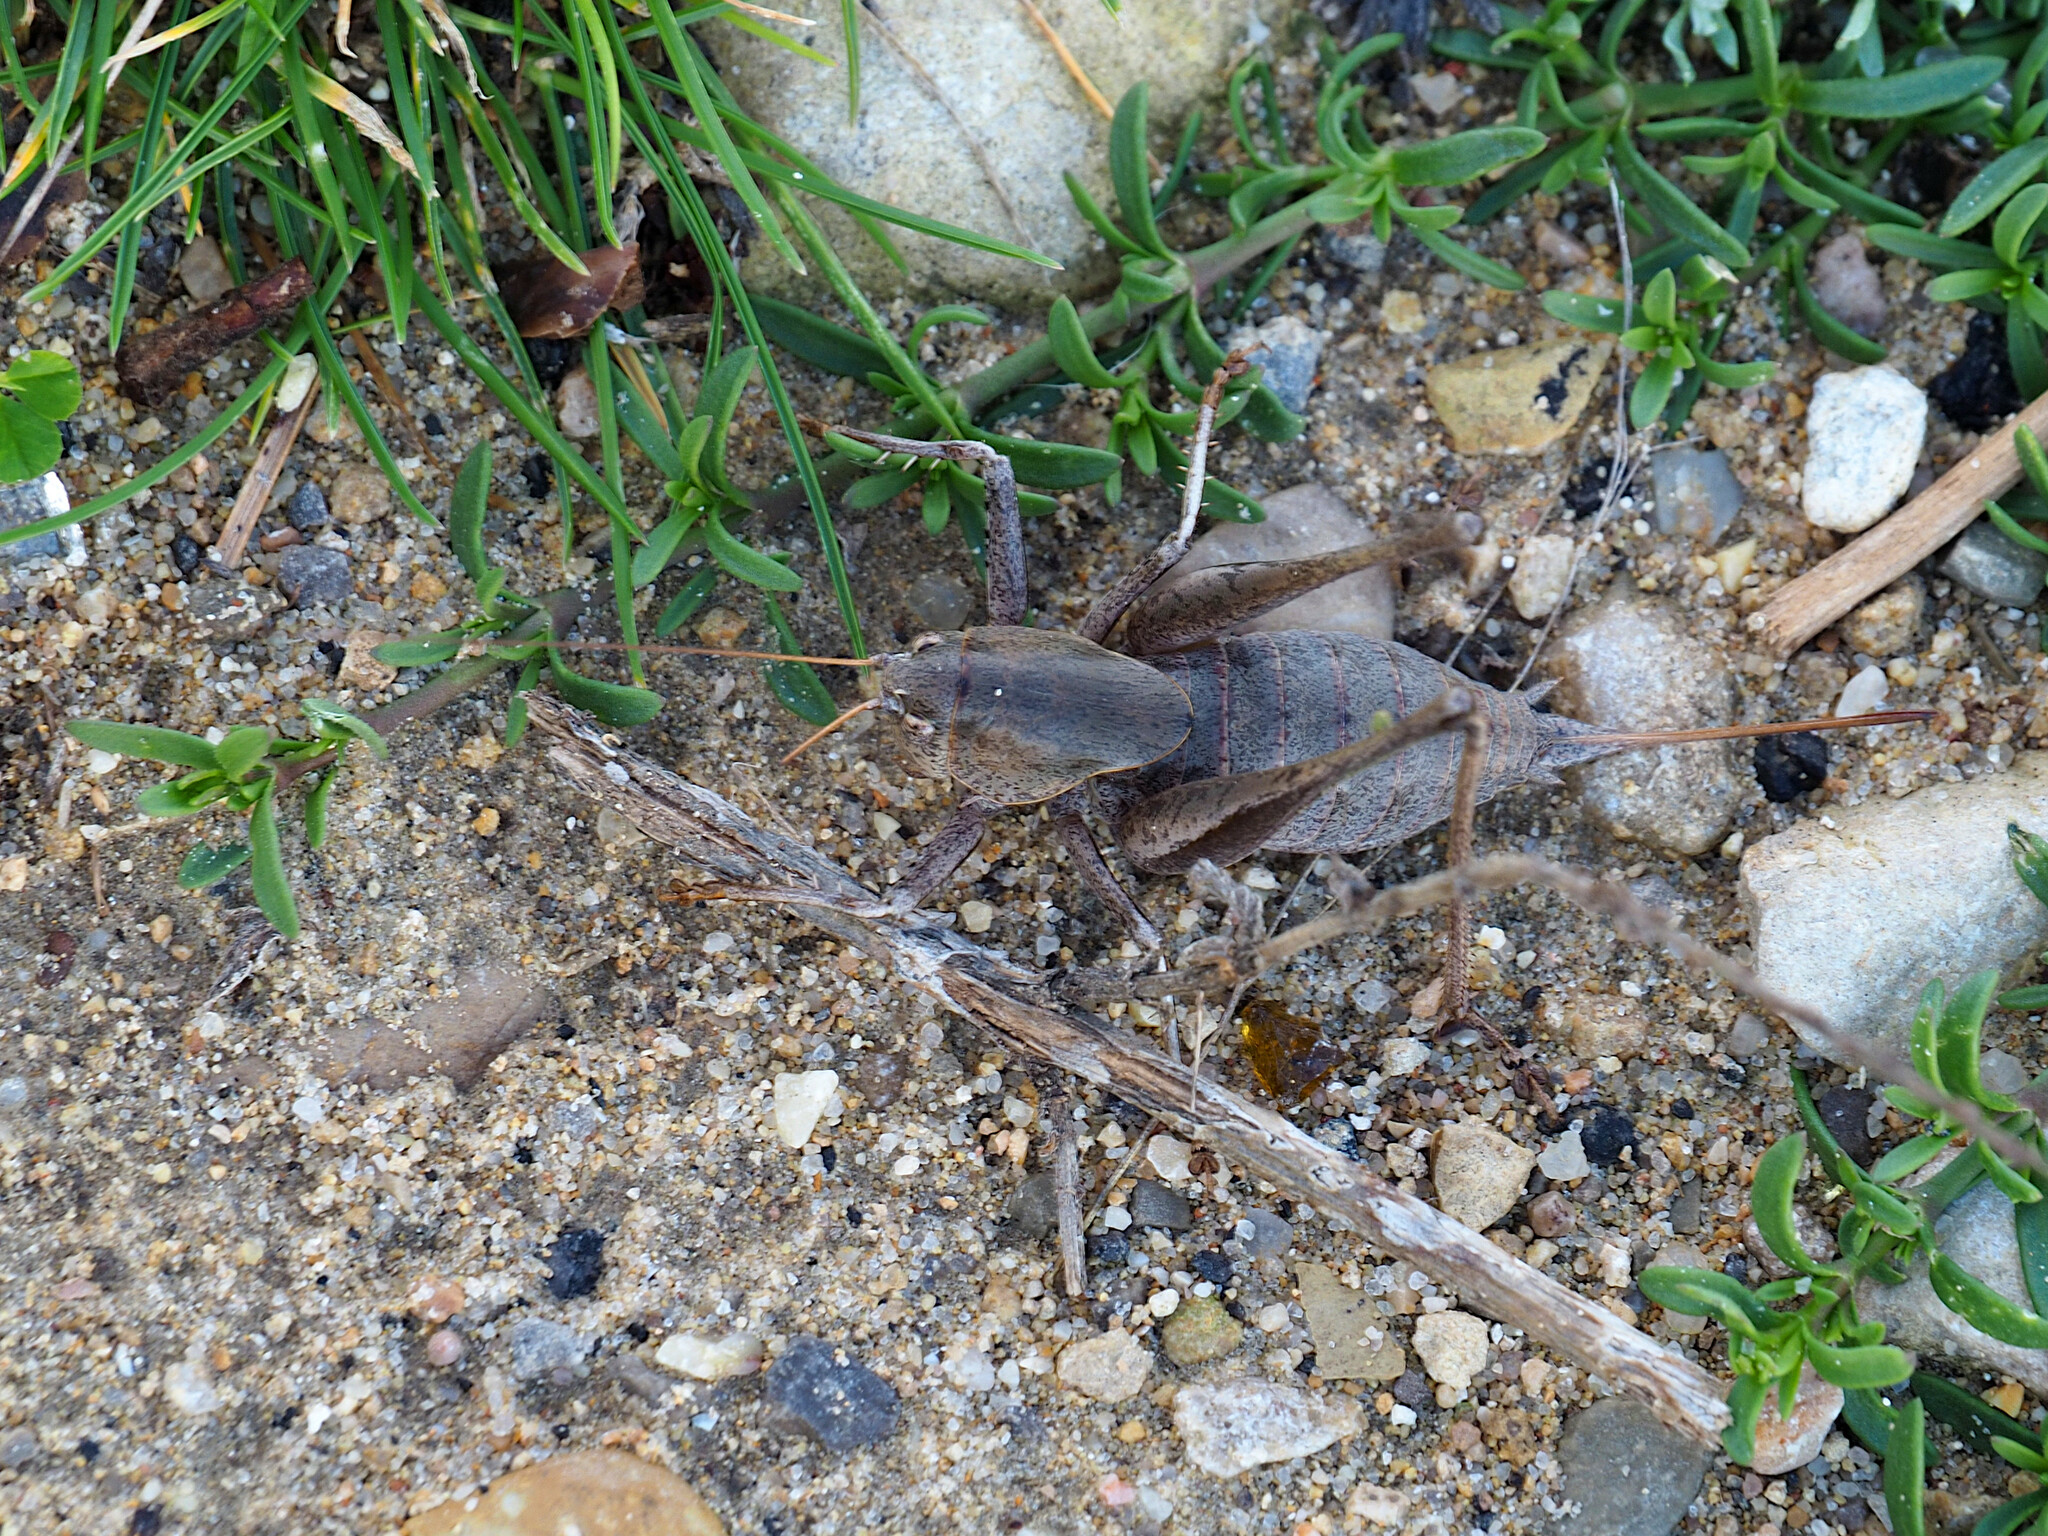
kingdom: Animalia
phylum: Arthropoda
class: Insecta
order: Orthoptera
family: Tettigoniidae
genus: Thyreonotus
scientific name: Thyreonotus corsicus
